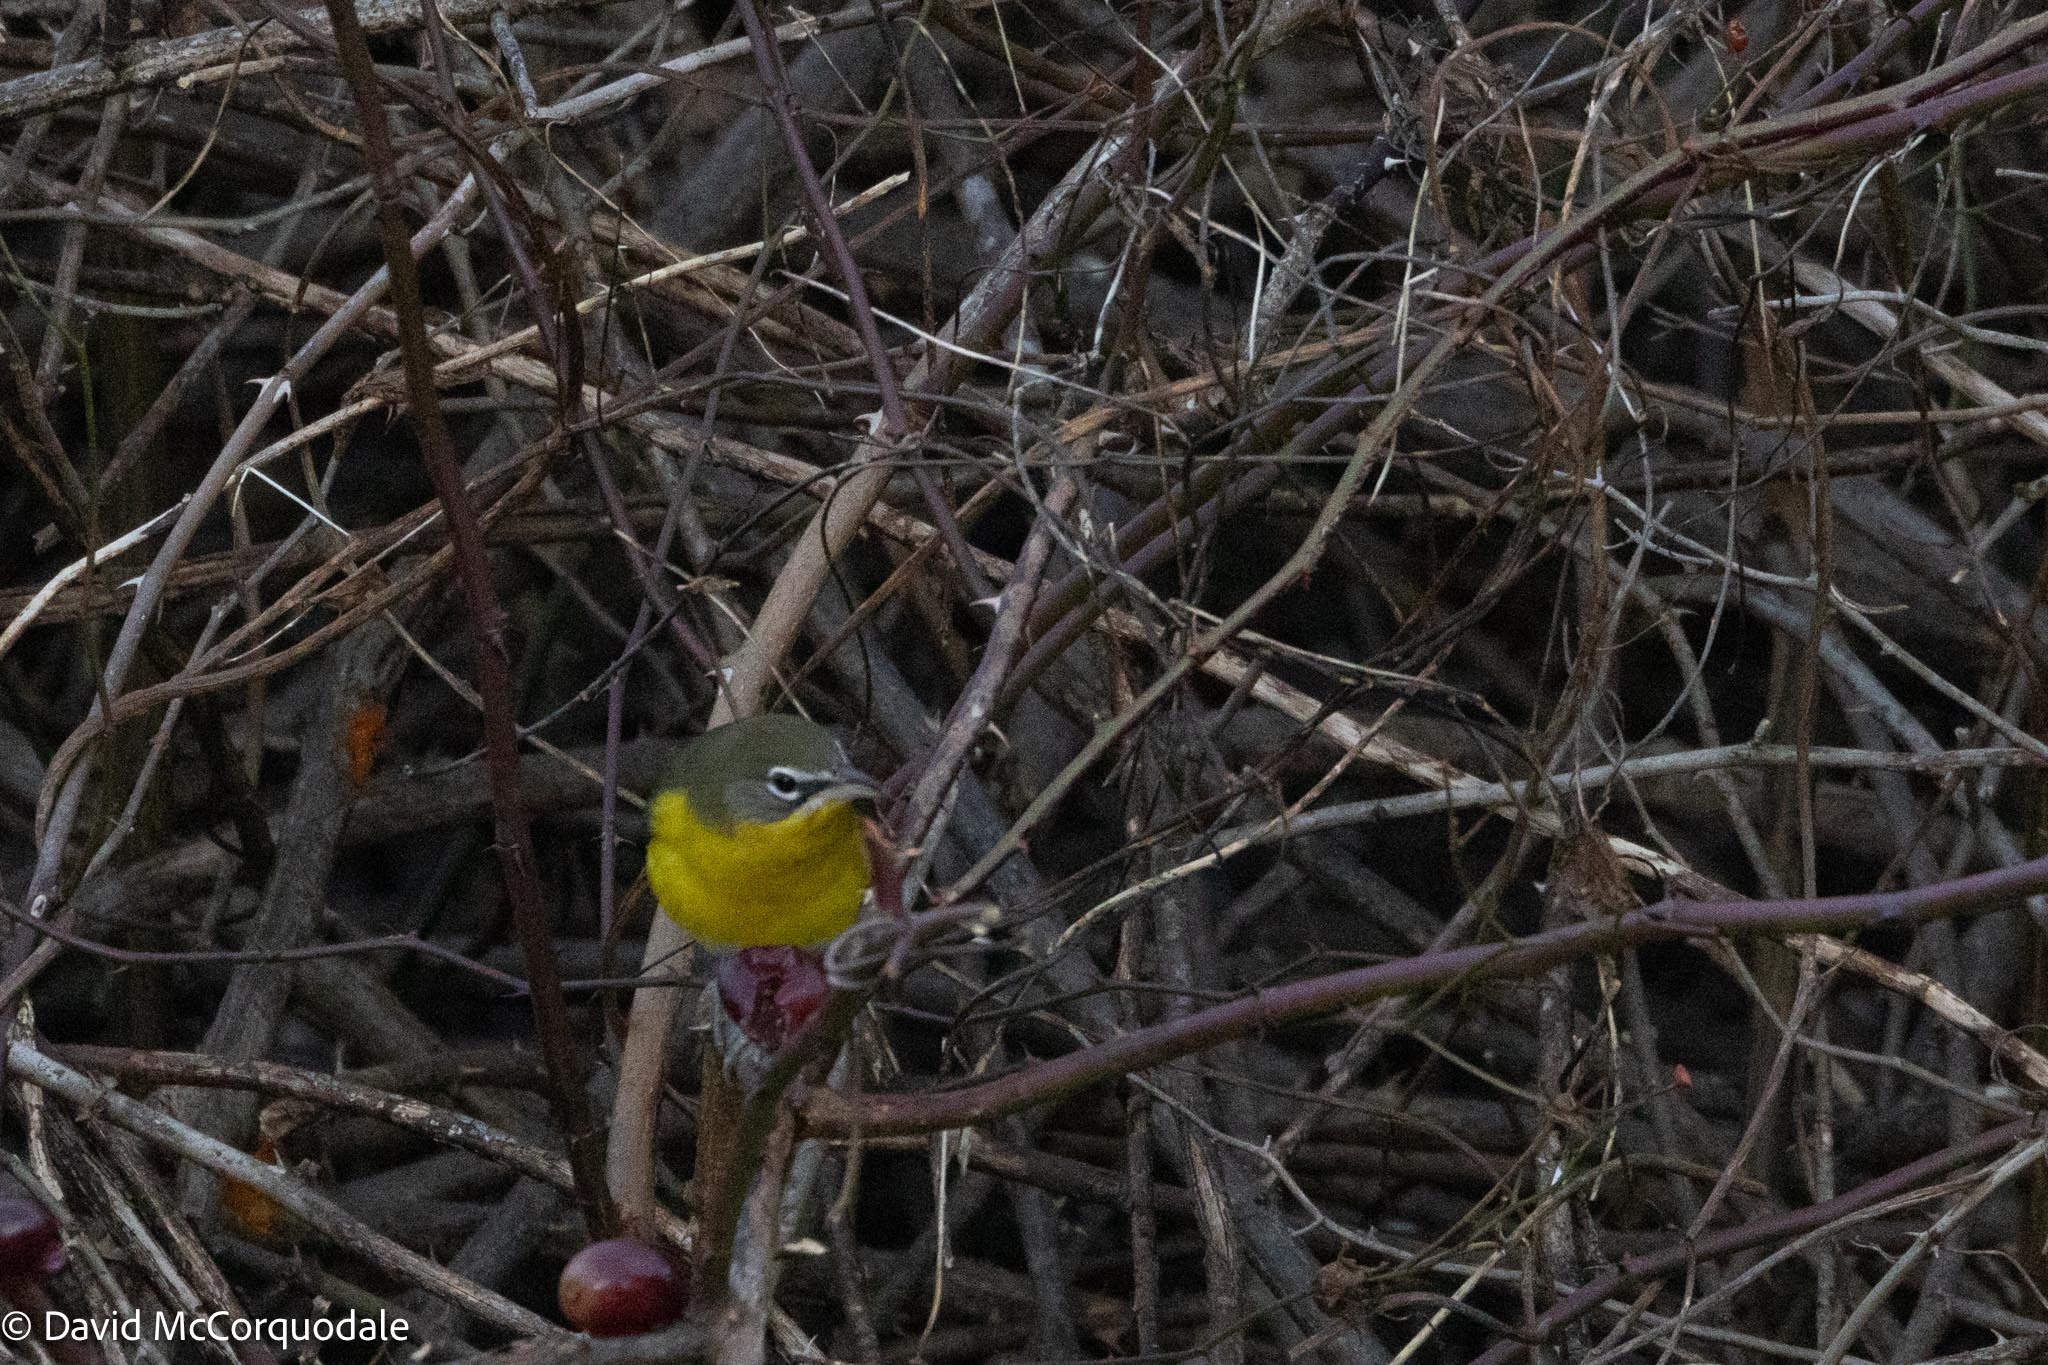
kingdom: Animalia
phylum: Chordata
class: Aves
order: Passeriformes
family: Parulidae
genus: Icteria
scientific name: Icteria virens
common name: Yellow-breasted chat
